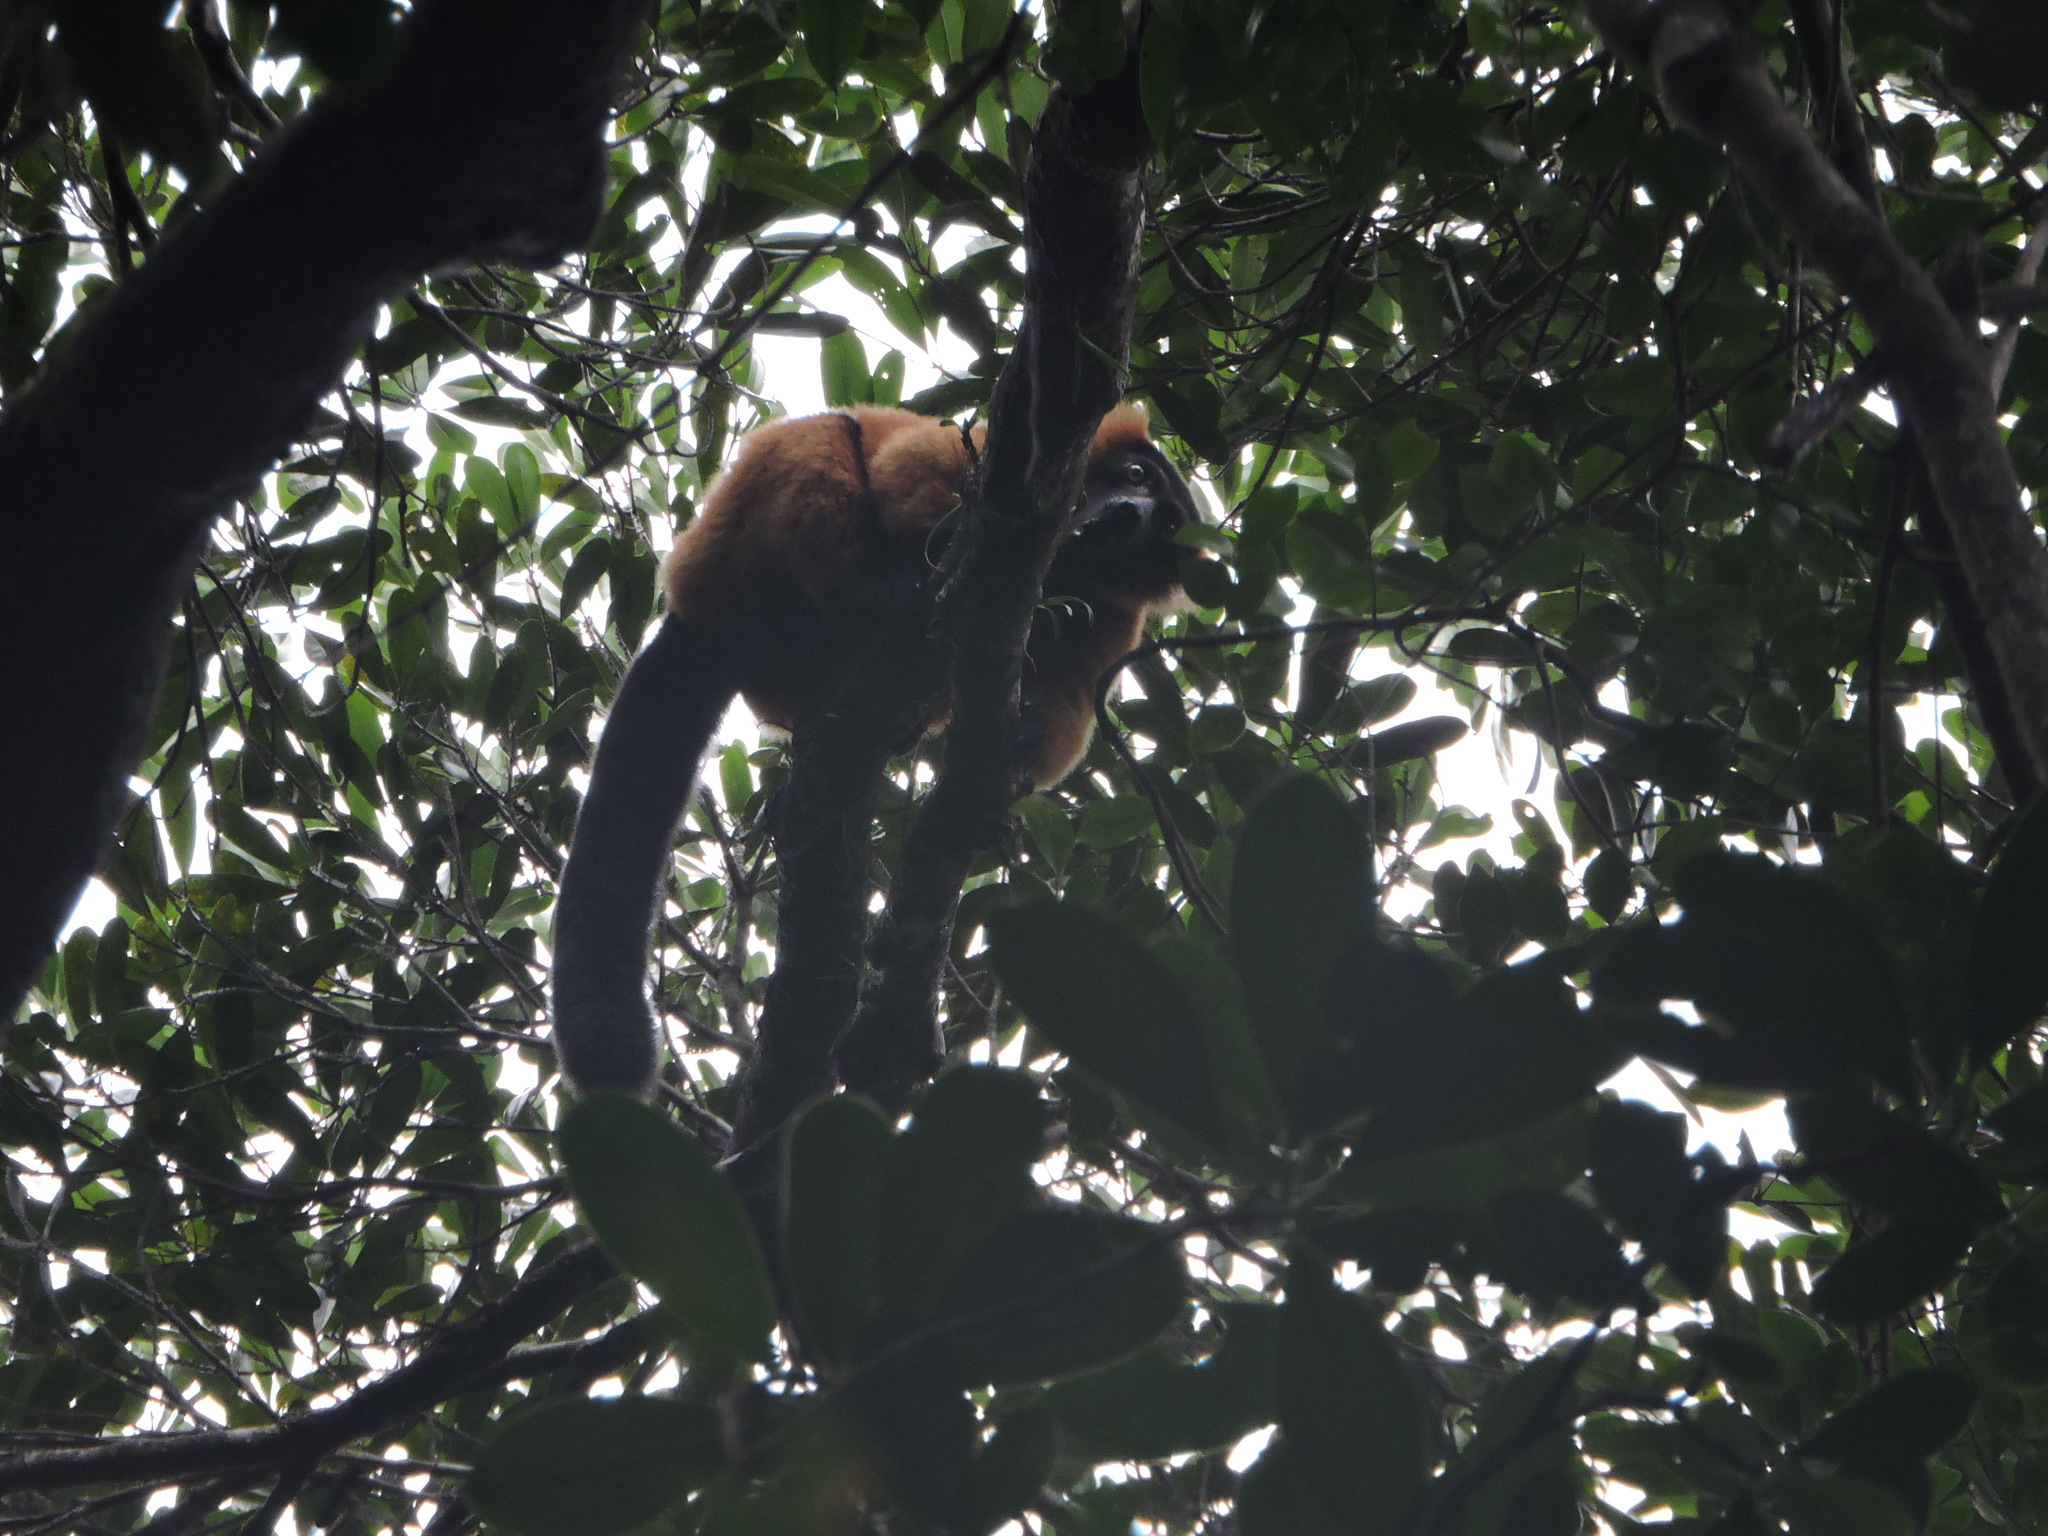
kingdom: Animalia
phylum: Chordata
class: Mammalia
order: Primates
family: Lemuridae
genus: Varecia
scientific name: Varecia rubra
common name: Red ruffed lemur
